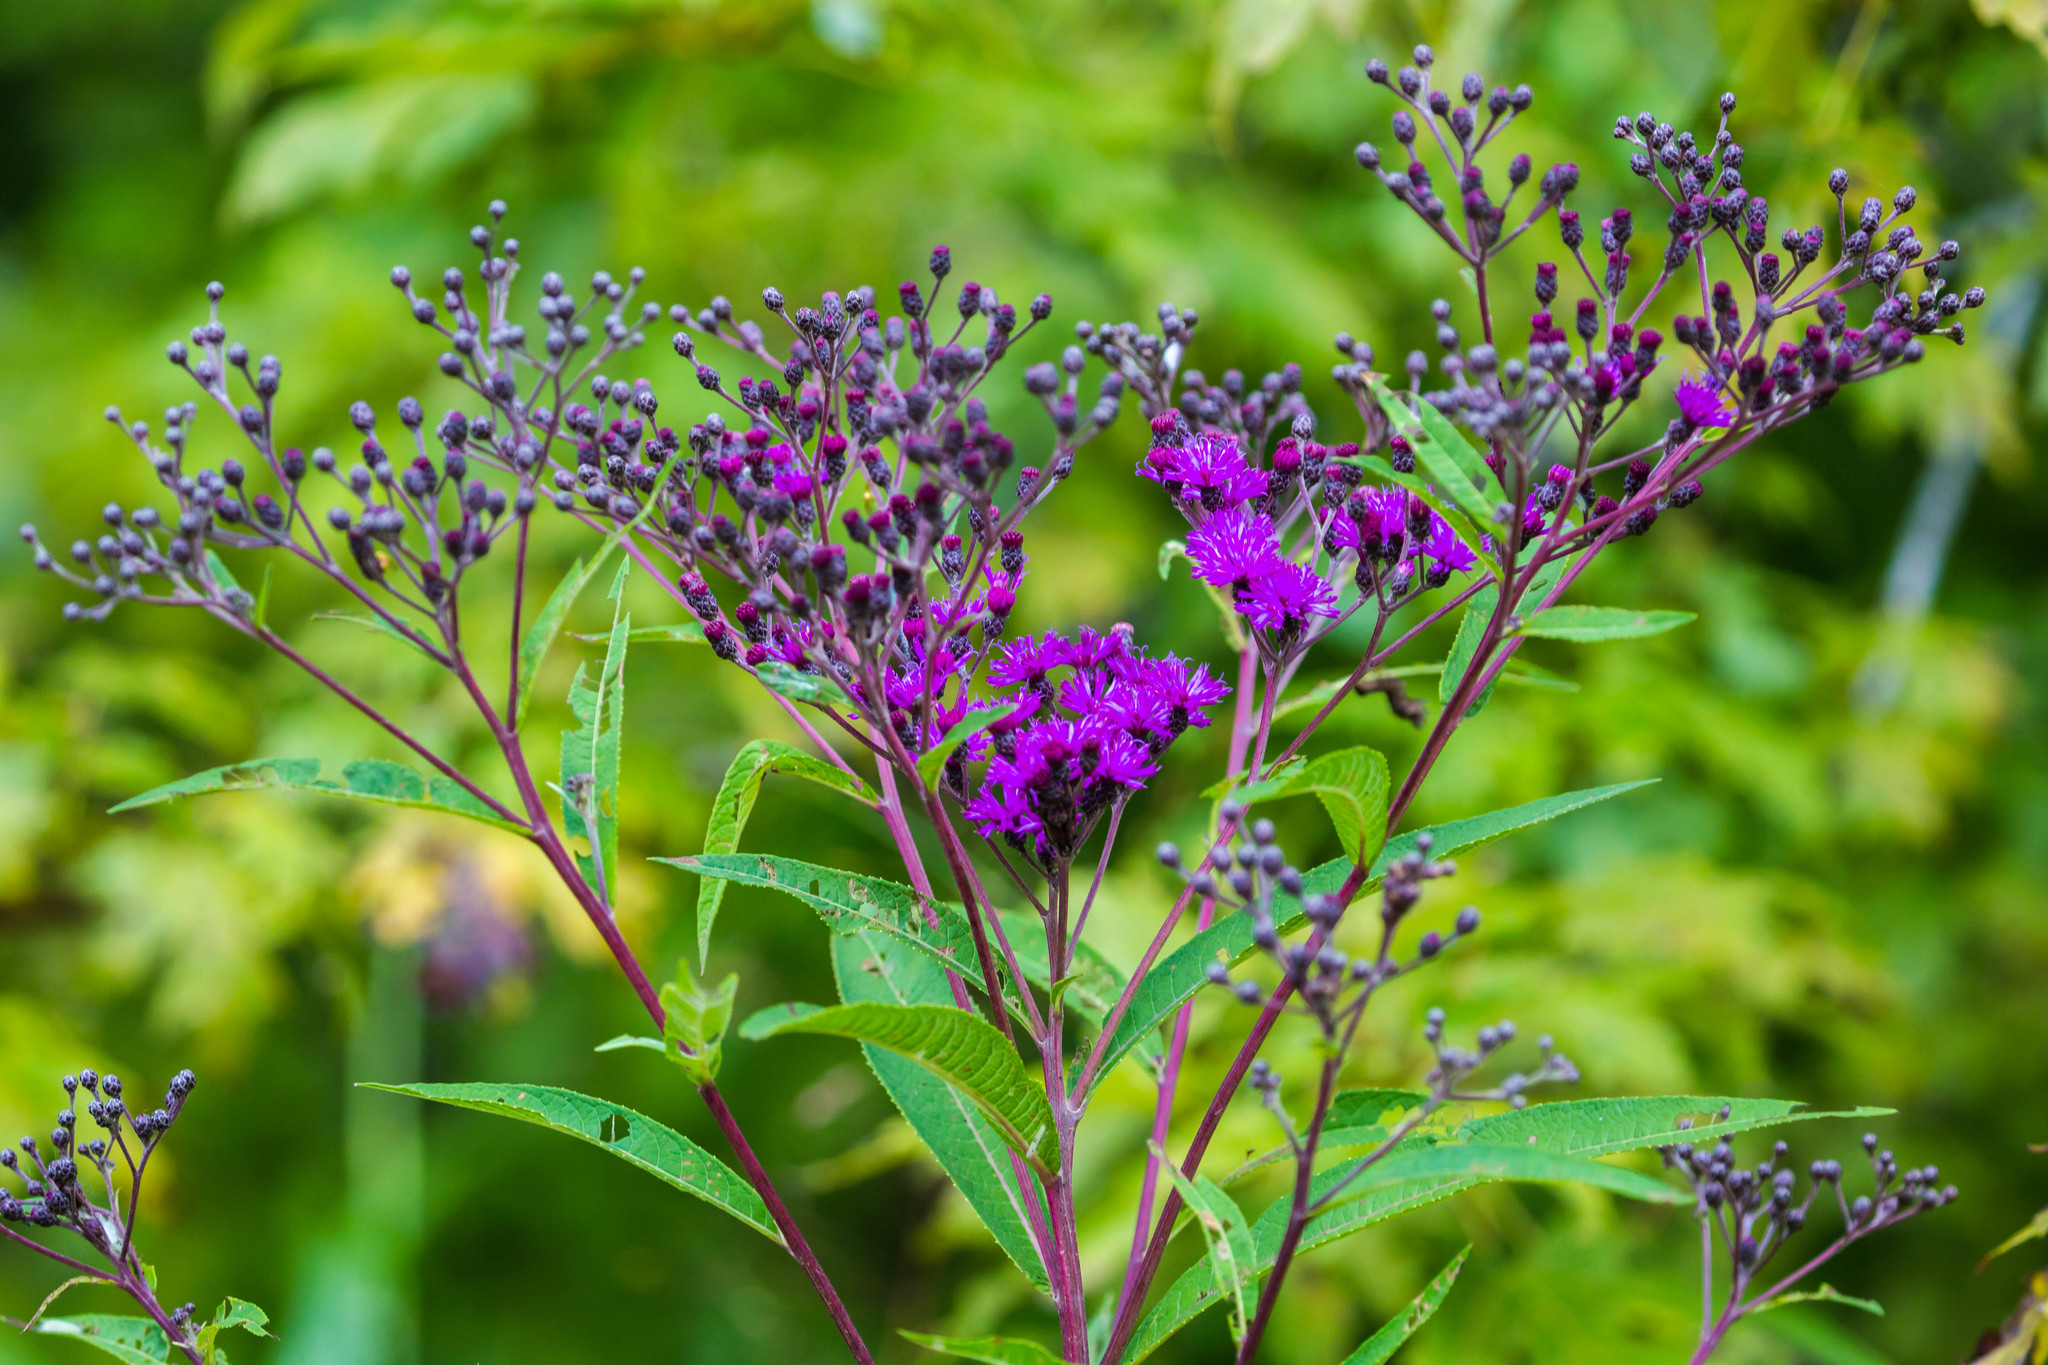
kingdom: Plantae
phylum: Tracheophyta
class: Magnoliopsida
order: Asterales
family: Asteraceae
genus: Vernonia
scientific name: Vernonia gigantea
